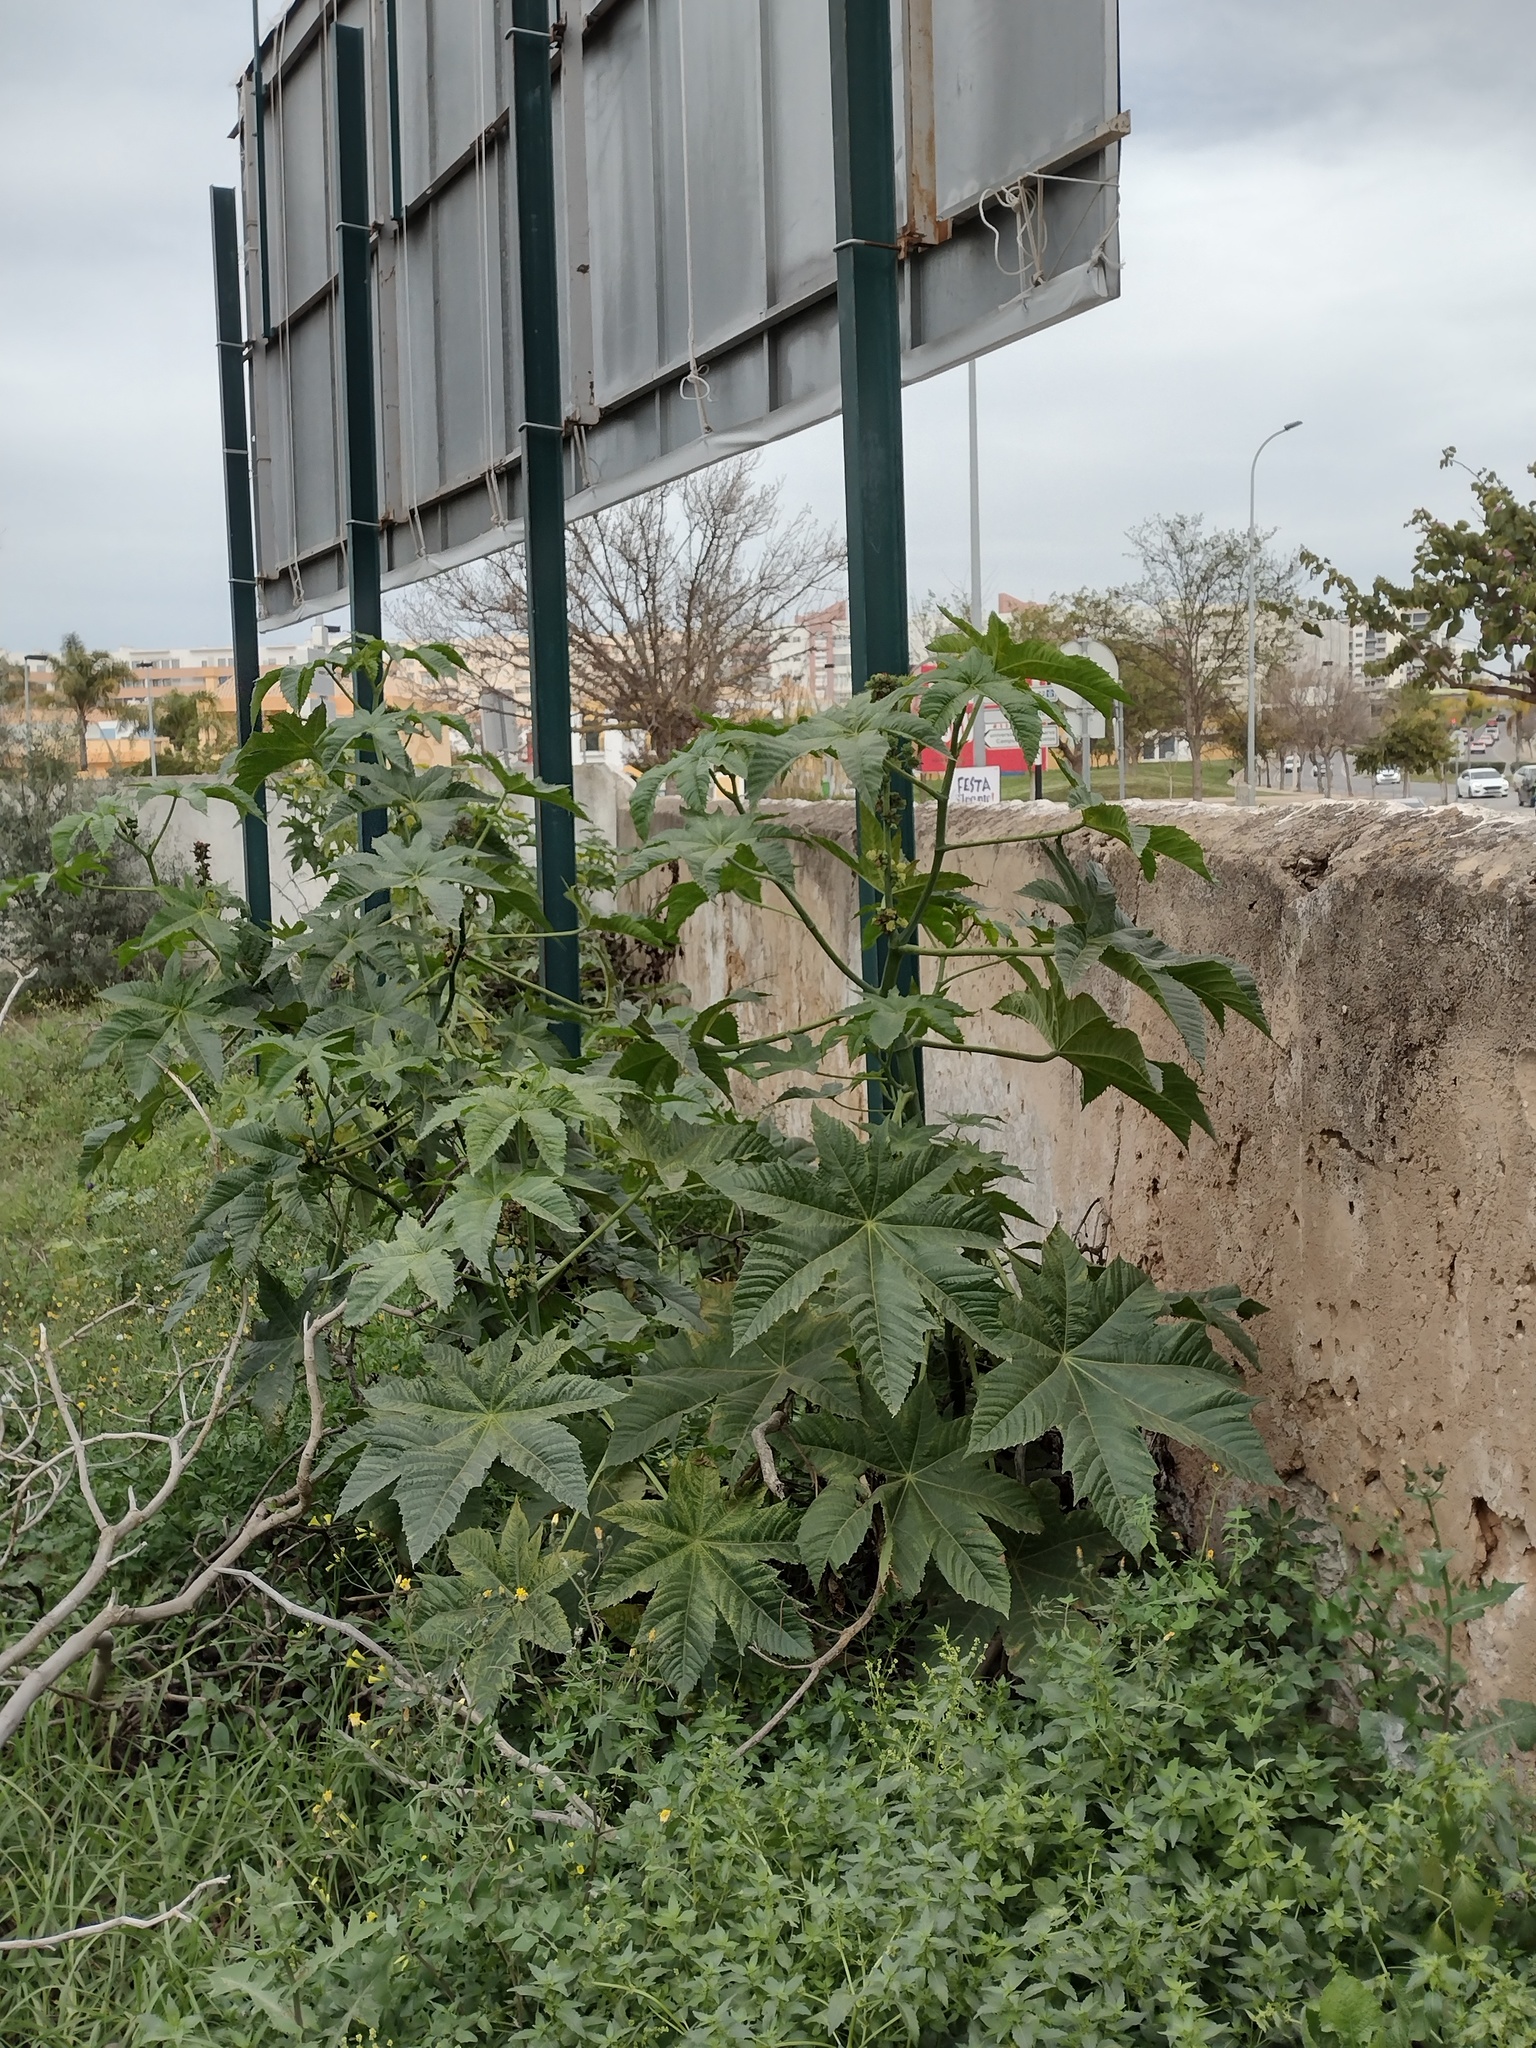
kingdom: Plantae
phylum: Tracheophyta
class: Magnoliopsida
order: Malpighiales
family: Euphorbiaceae
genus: Ricinus
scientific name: Ricinus communis
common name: Castor-oil-plant
